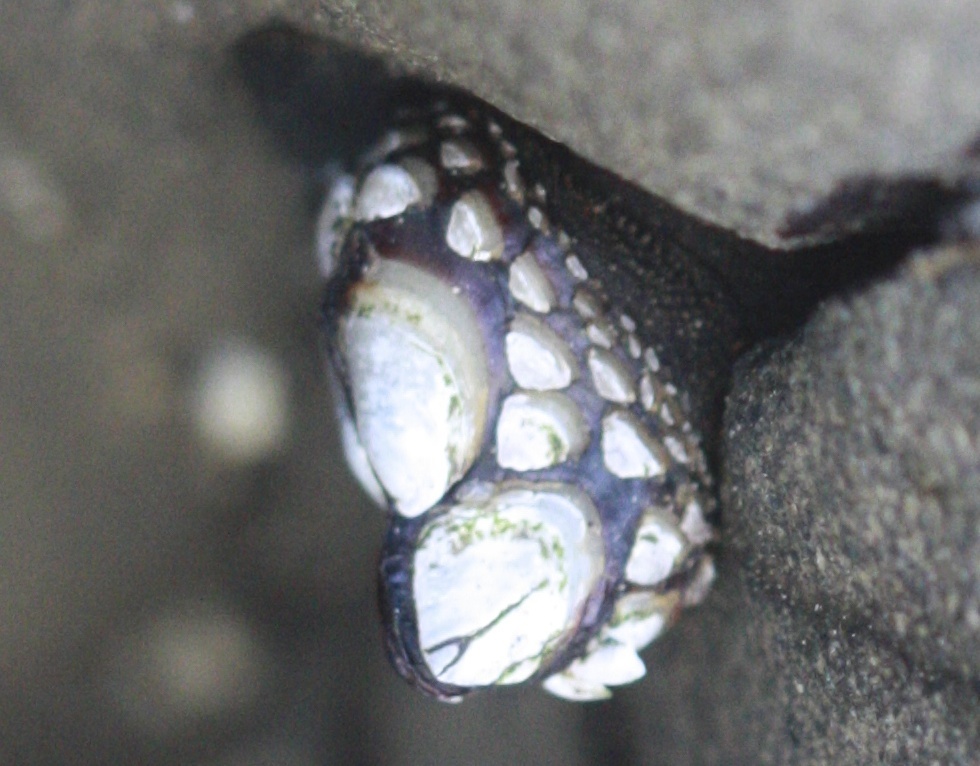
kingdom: Animalia
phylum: Arthropoda
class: Maxillopoda
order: Pedunculata
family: Pollicipedidae
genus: Pollicipes
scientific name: Pollicipes polymerus
